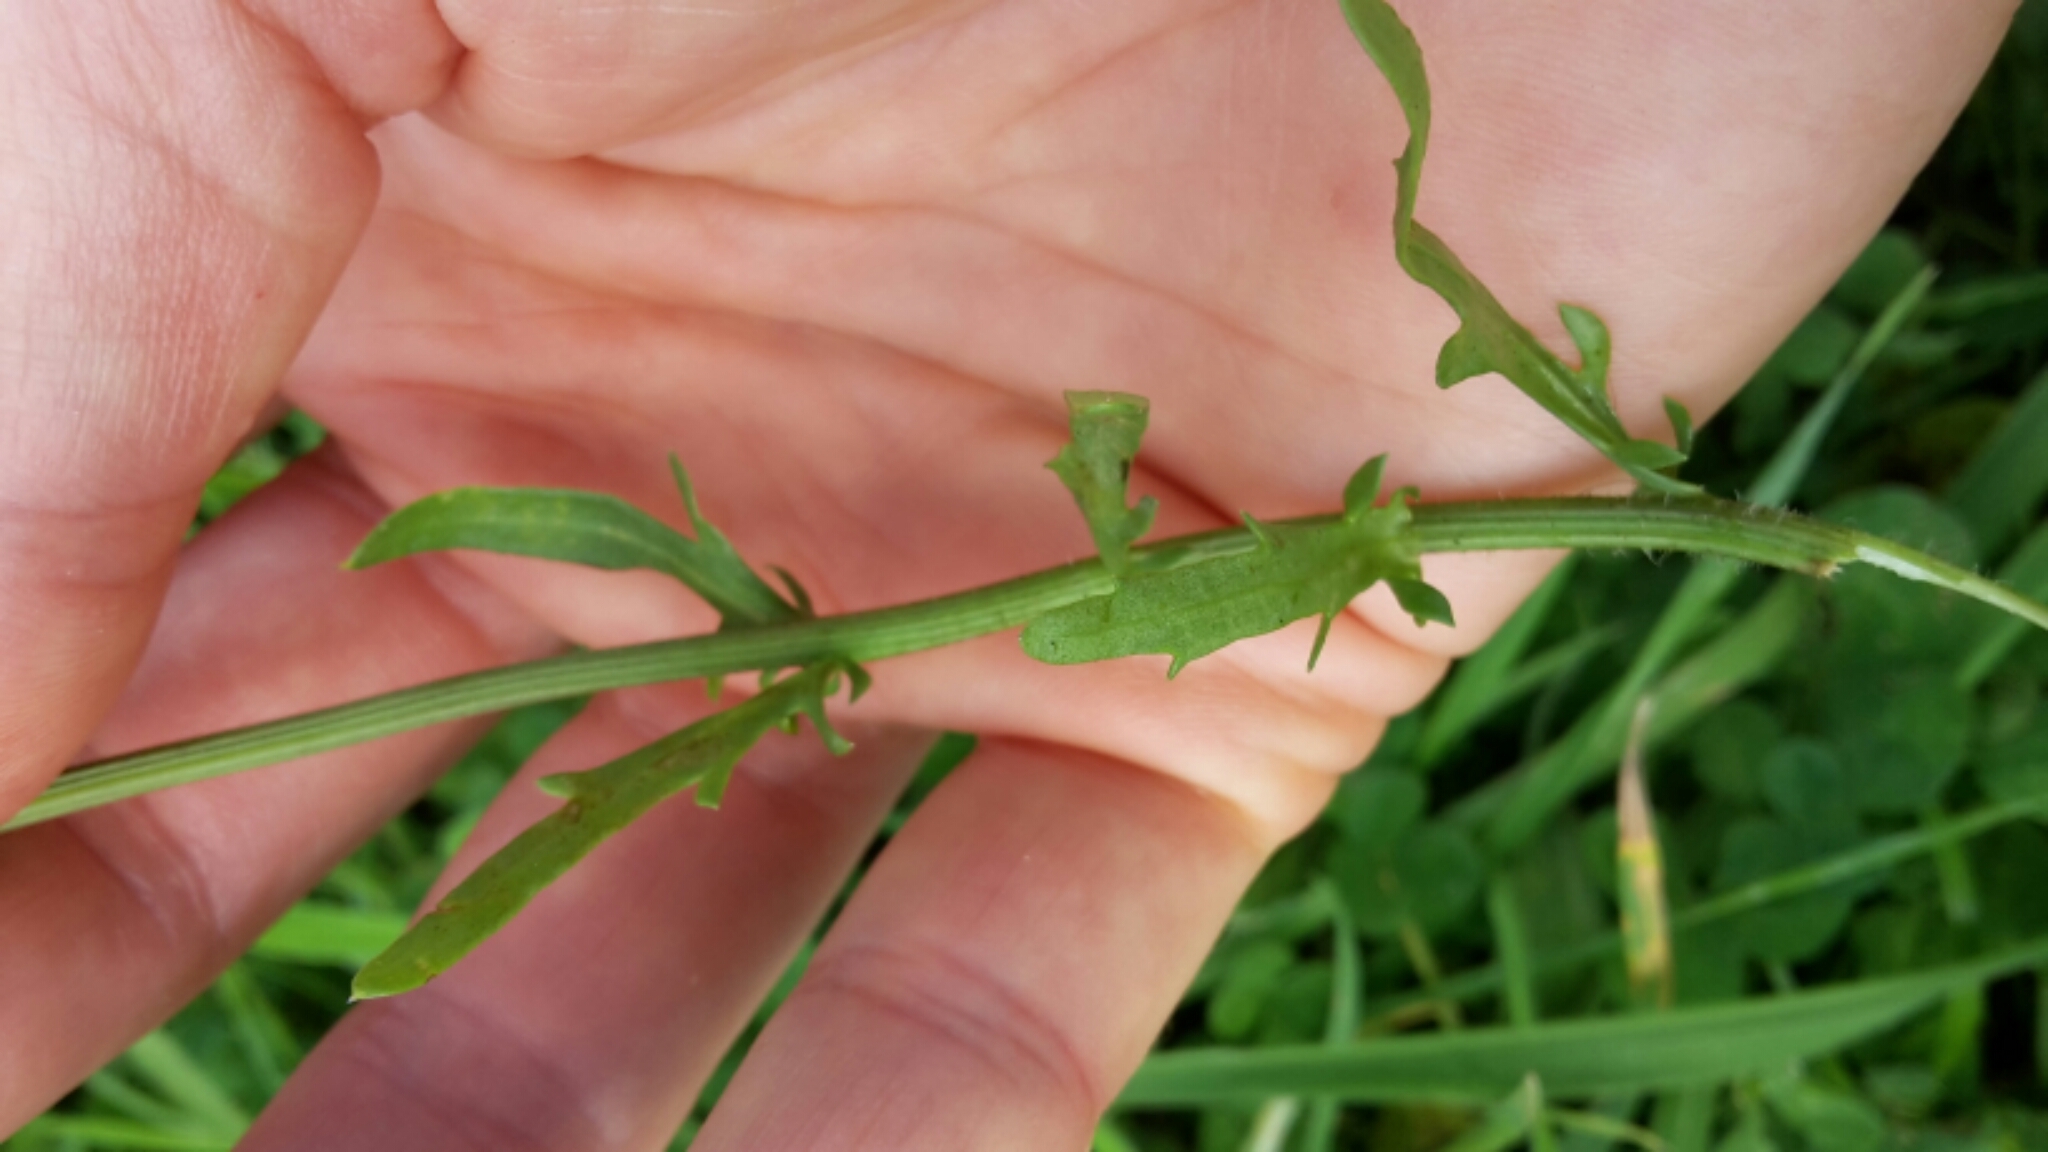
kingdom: Plantae
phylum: Tracheophyta
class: Magnoliopsida
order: Asterales
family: Asteraceae
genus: Leucanthemum
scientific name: Leucanthemum vulgare
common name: Oxeye daisy
